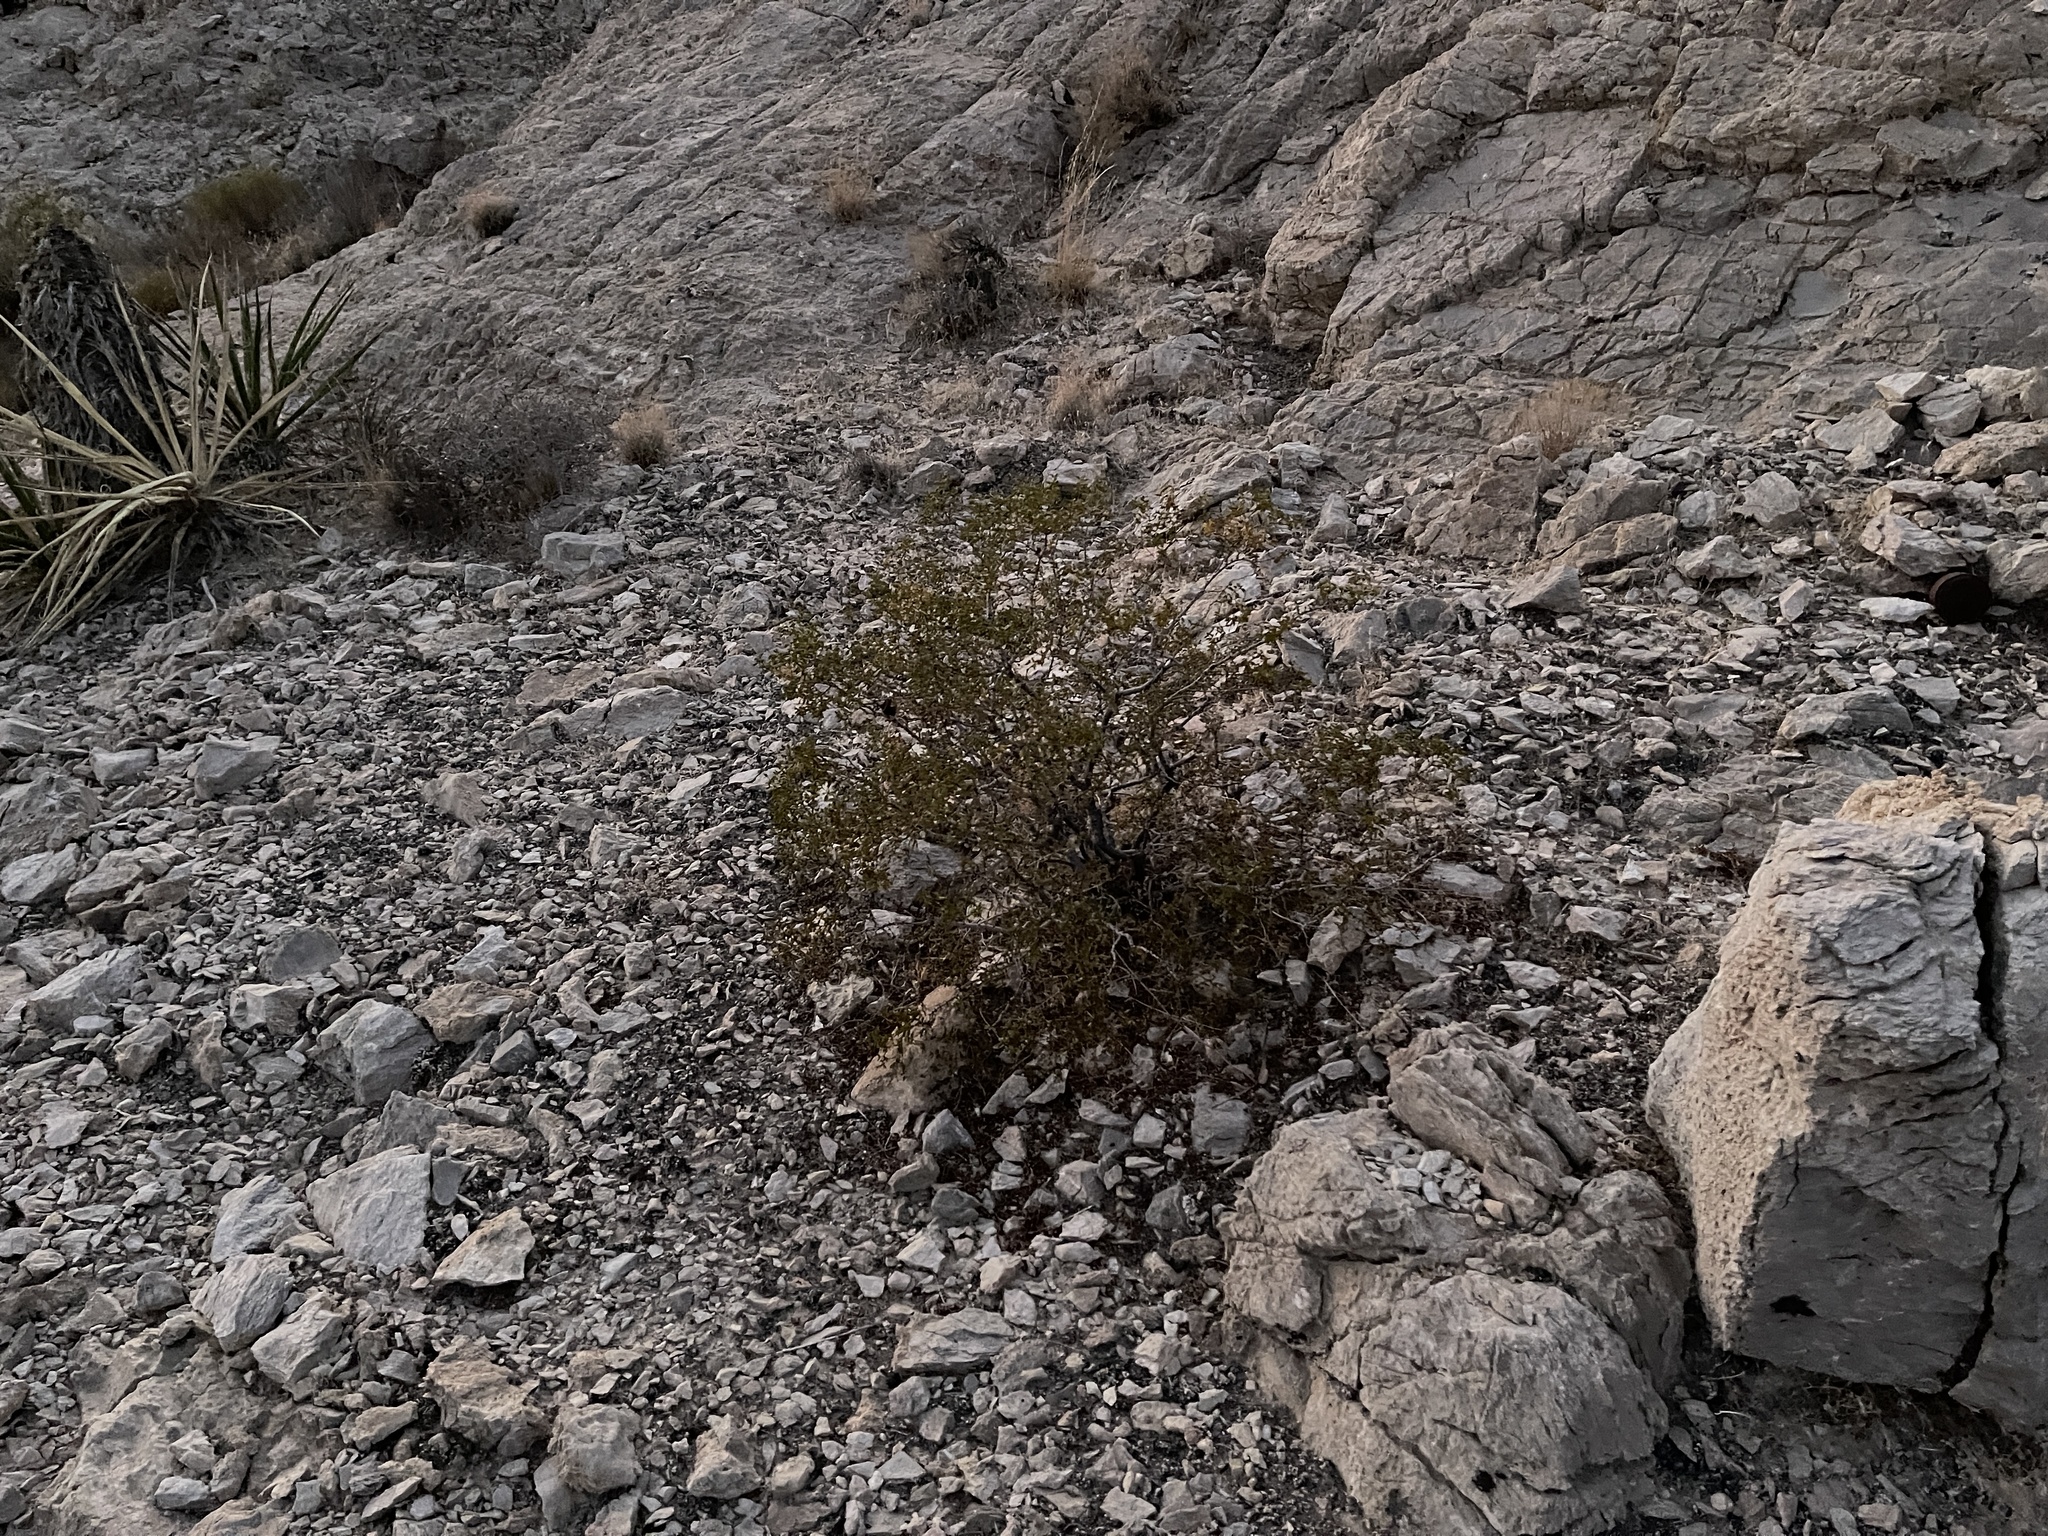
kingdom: Plantae
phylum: Tracheophyta
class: Magnoliopsida
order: Zygophyllales
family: Zygophyllaceae
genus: Larrea
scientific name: Larrea tridentata
